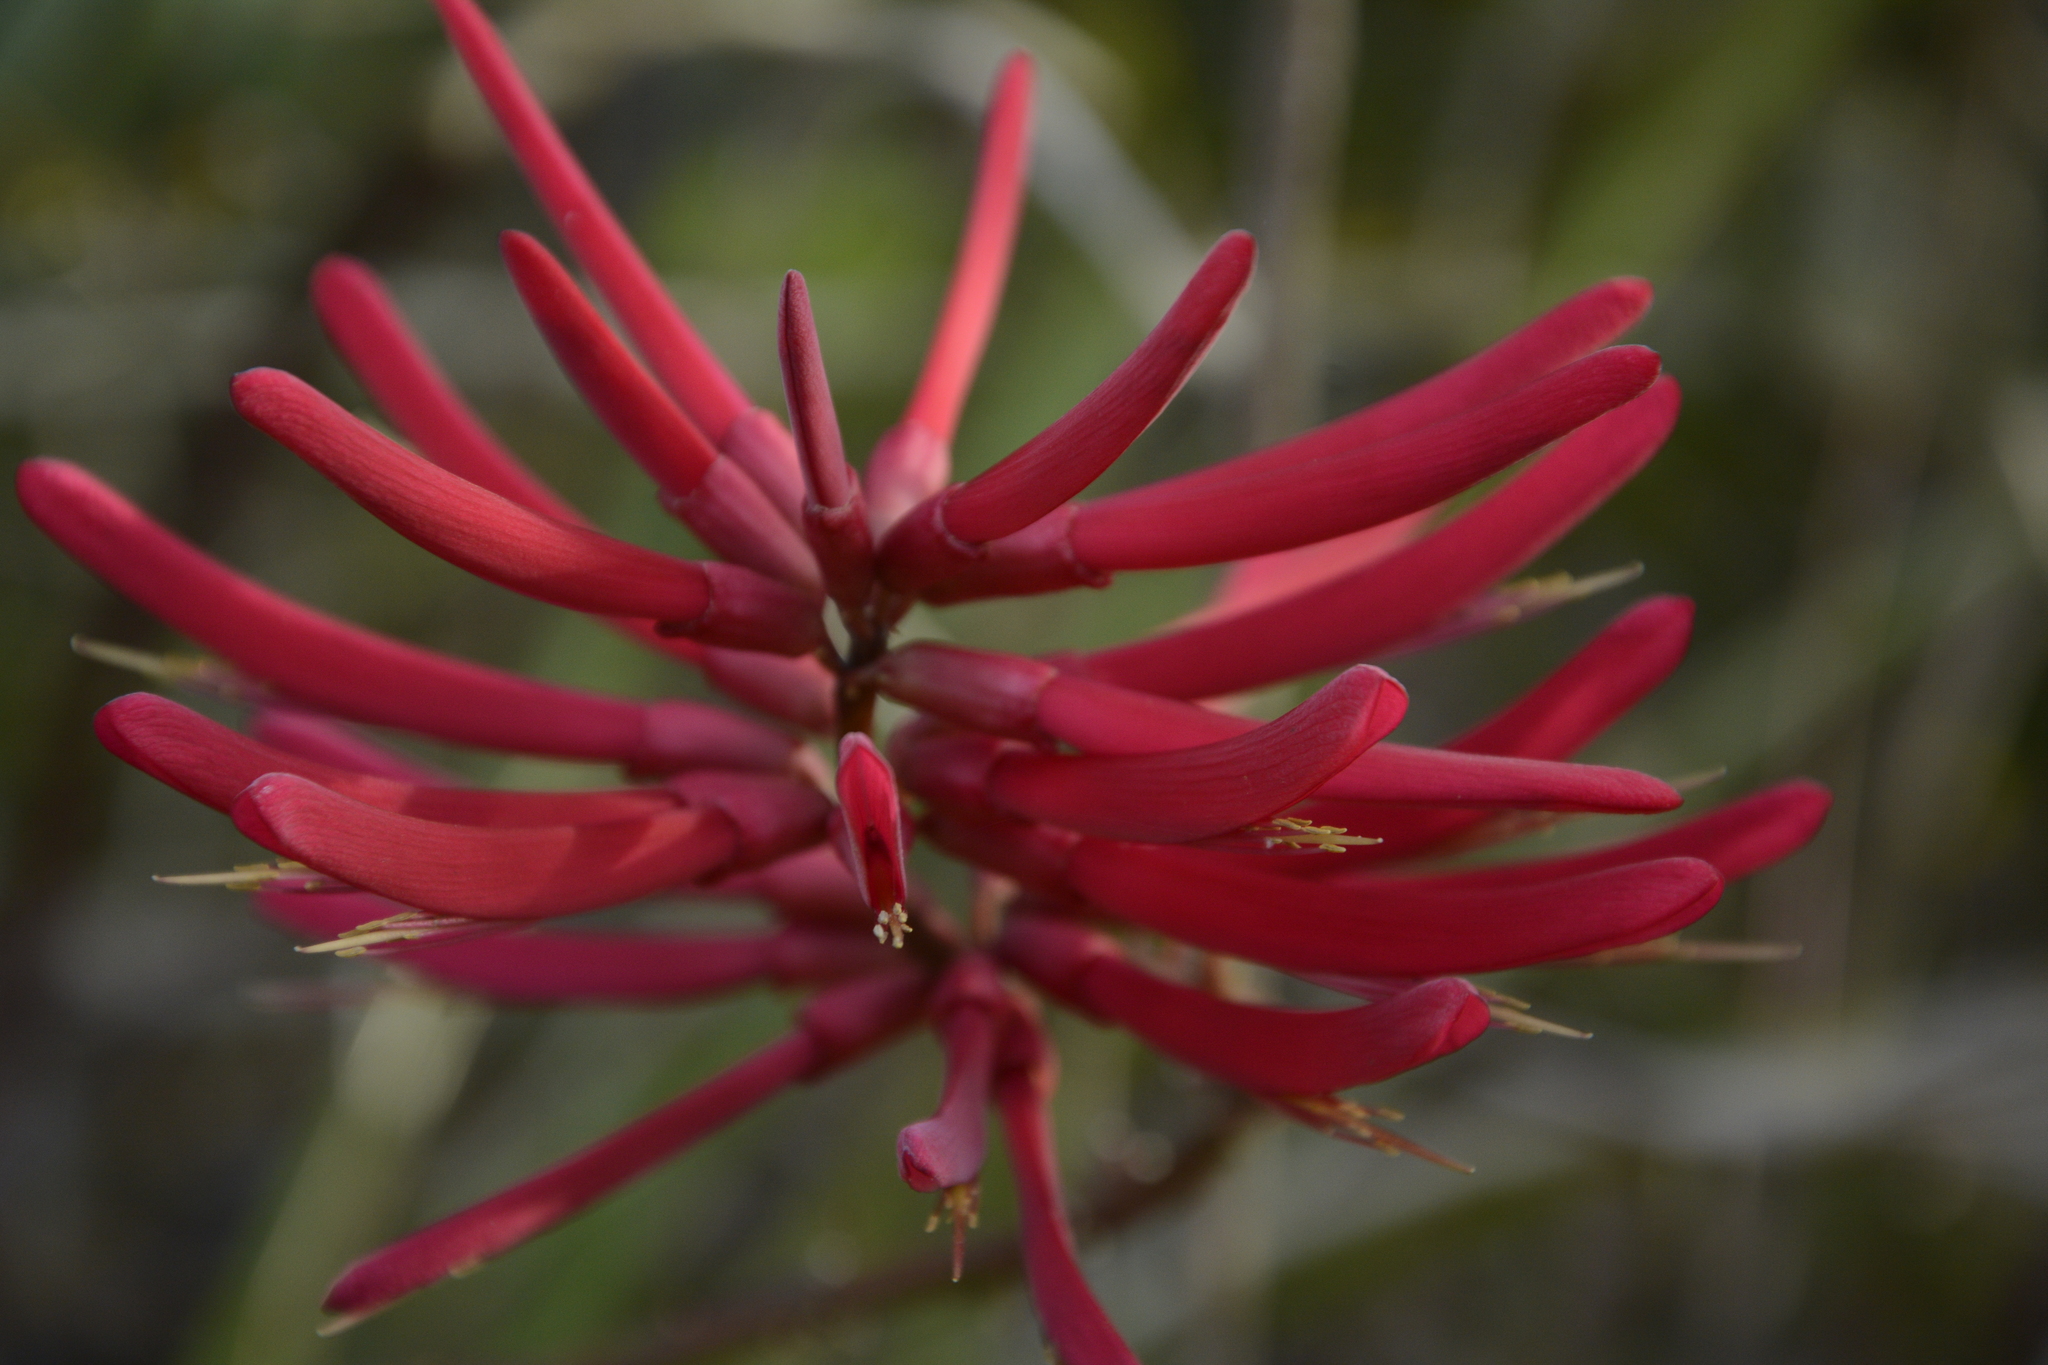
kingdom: Plantae
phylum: Tracheophyta
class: Magnoliopsida
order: Fabales
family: Fabaceae
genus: Erythrina
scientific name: Erythrina herbacea
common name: Coral-bean
